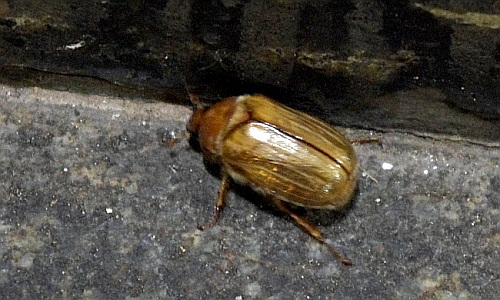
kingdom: Animalia
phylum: Arthropoda
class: Insecta
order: Coleoptera
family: Scarabaeidae
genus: Amphimallon
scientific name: Amphimallon solstitiale
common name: Summer chafer
